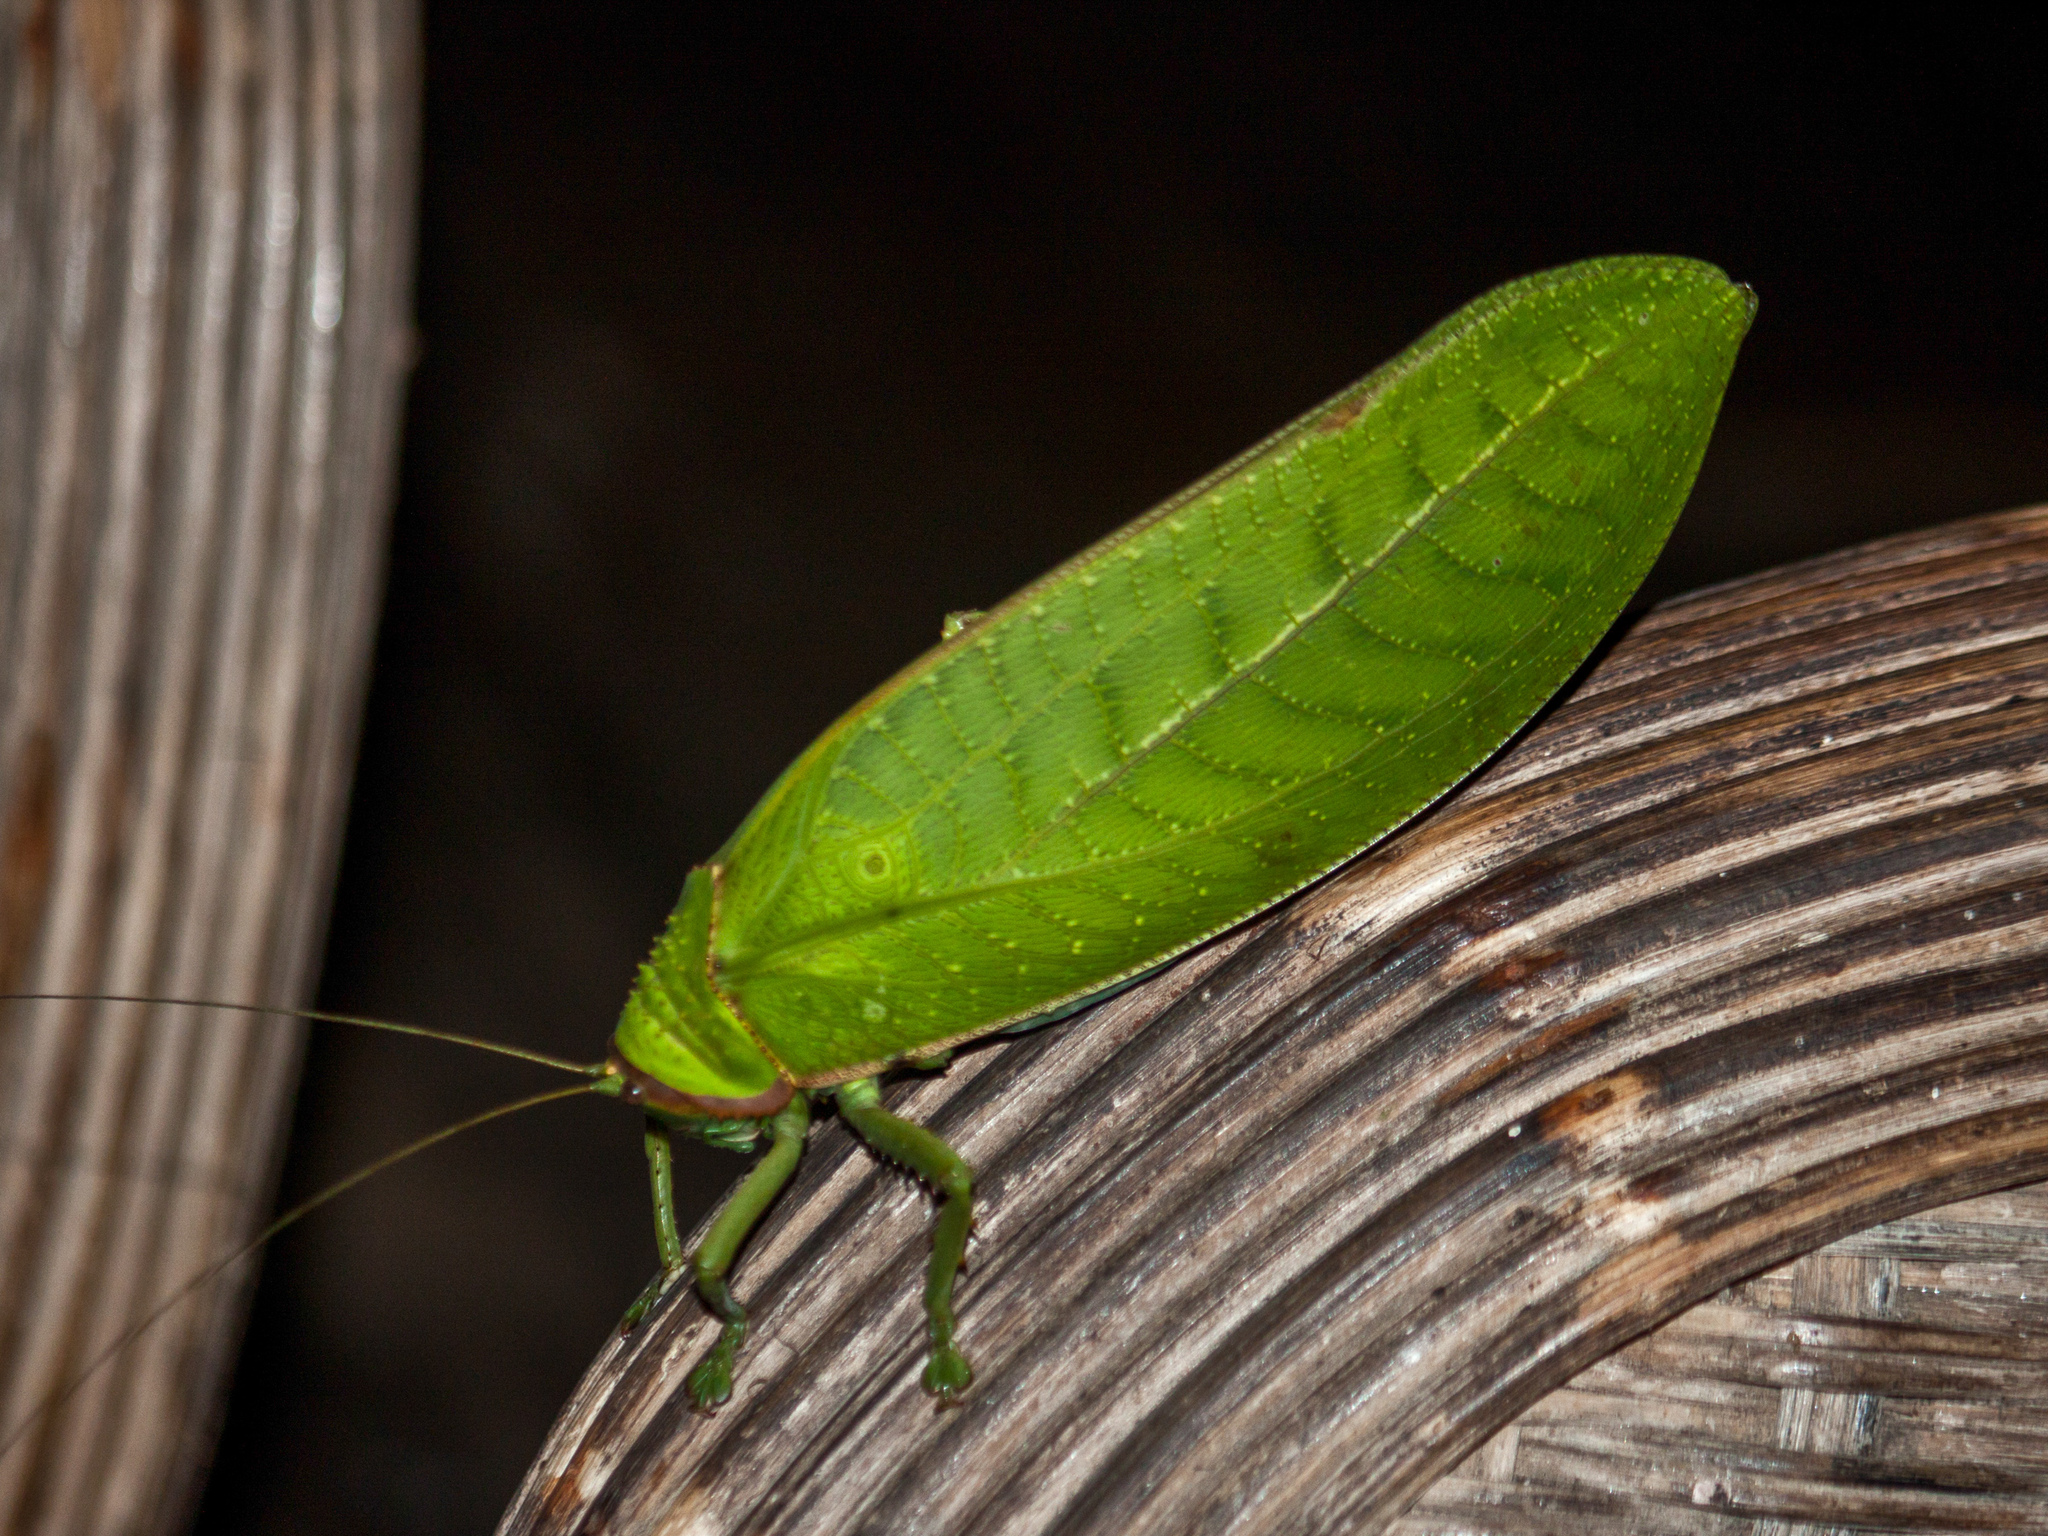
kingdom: Animalia
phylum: Arthropoda
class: Insecta
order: Orthoptera
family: Tettigoniidae
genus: Pseudophyllus
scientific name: Pseudophyllus titan
